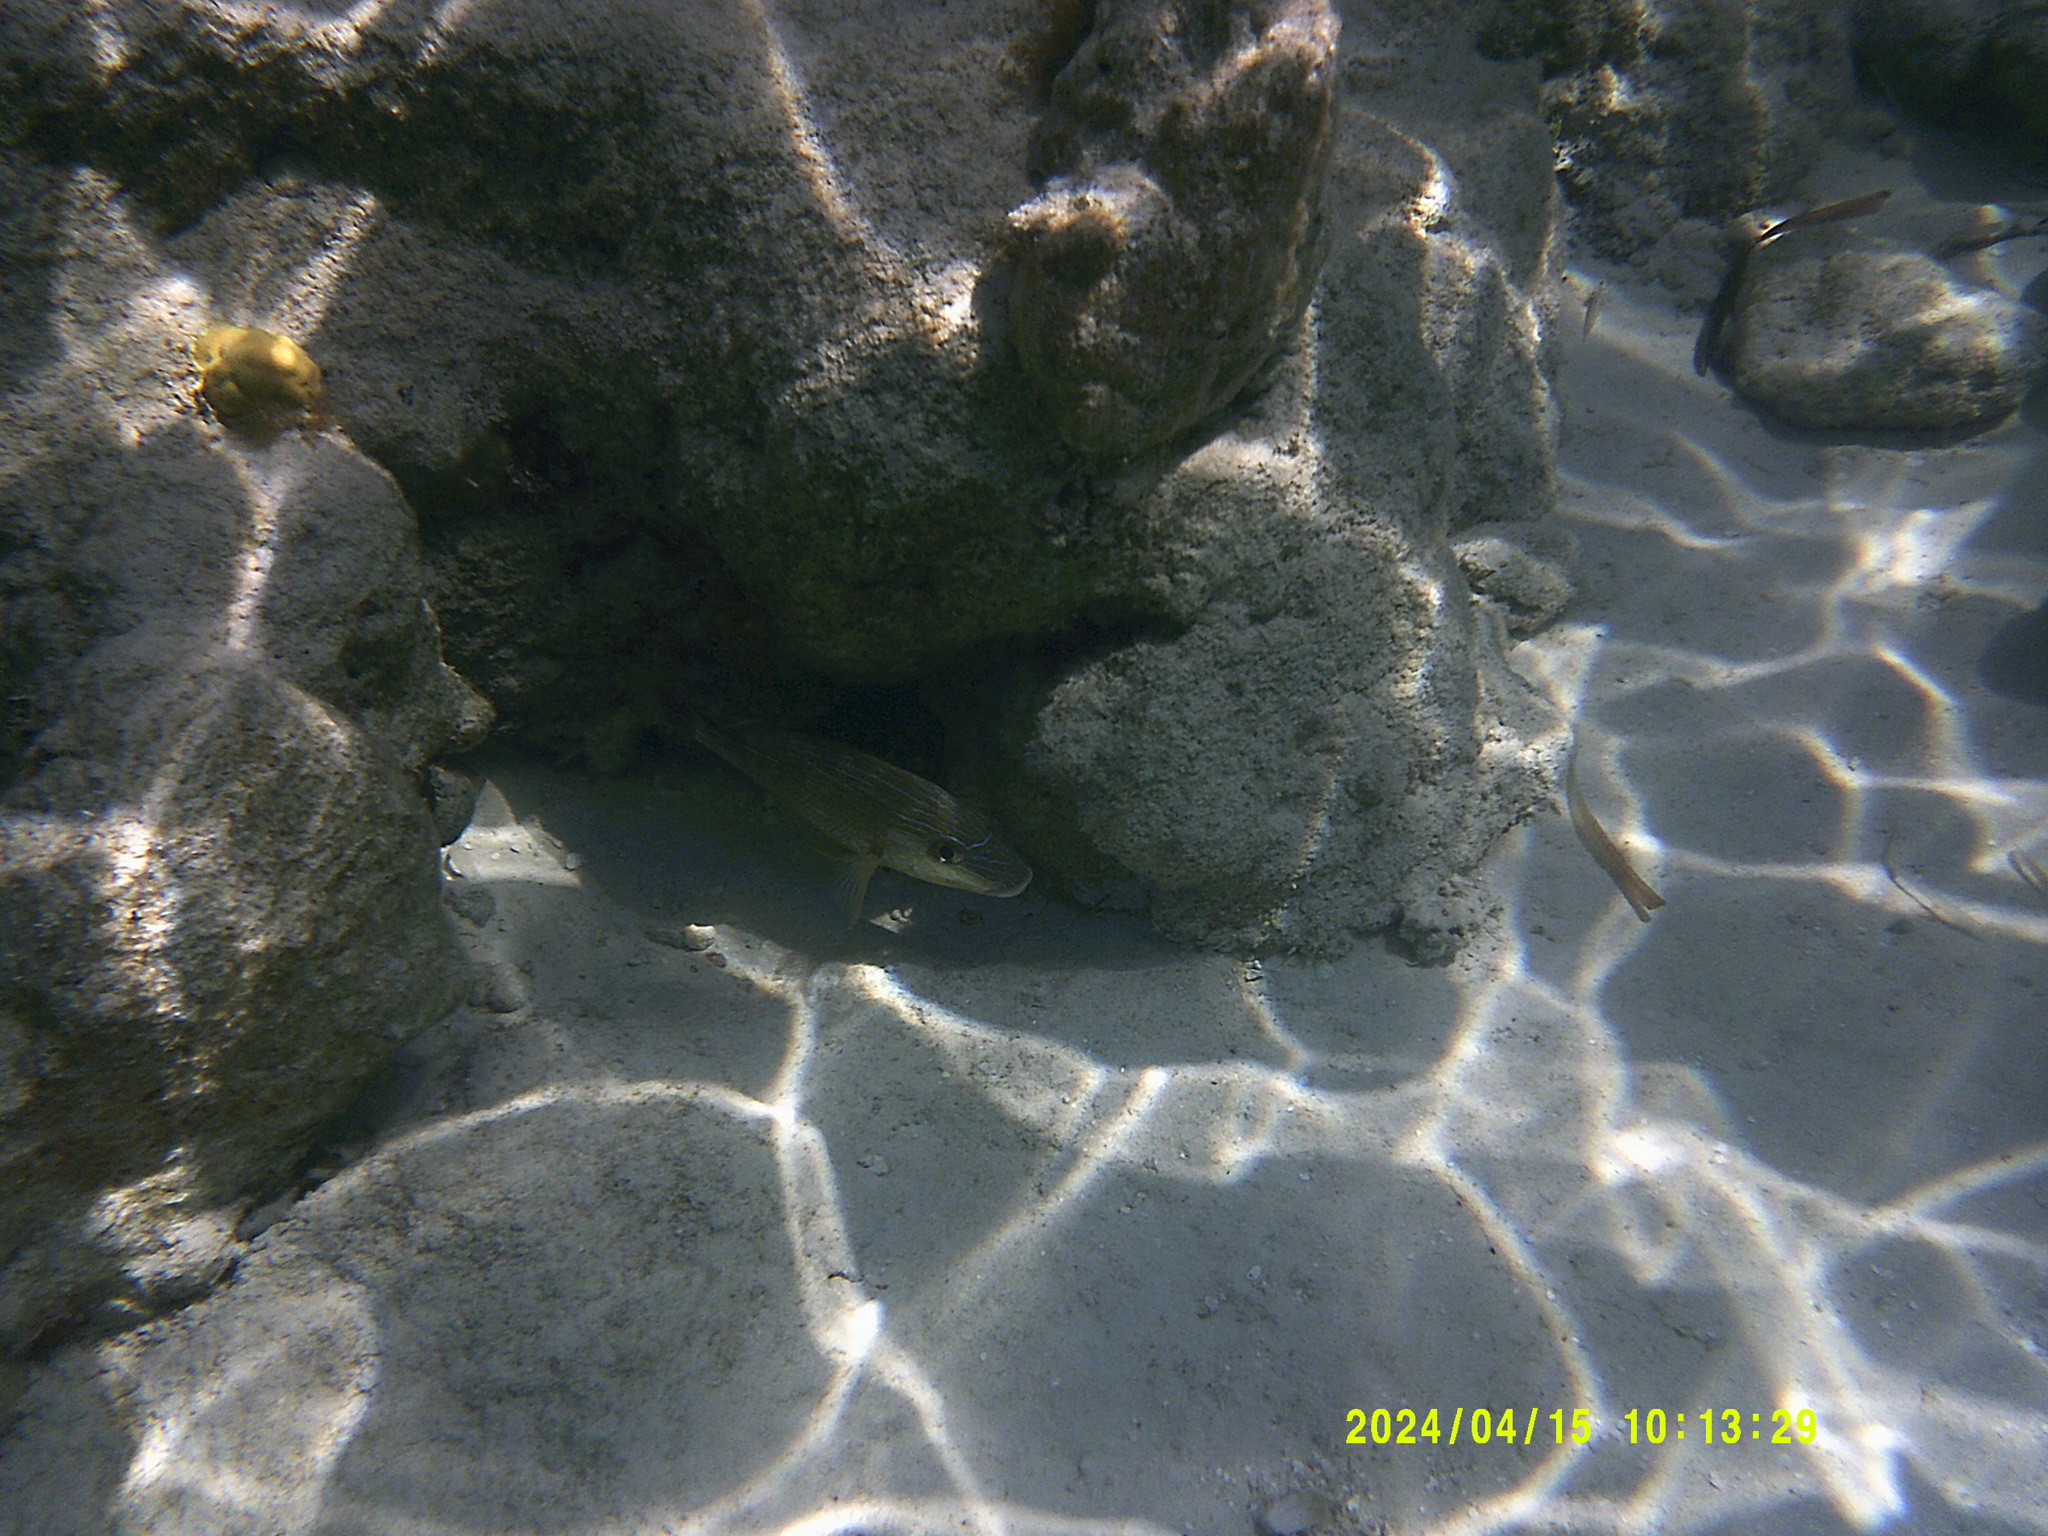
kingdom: Animalia
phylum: Chordata
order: Perciformes
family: Haemulidae
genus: Haemulon
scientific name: Haemulon sciurus
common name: Bluestriped grunt
